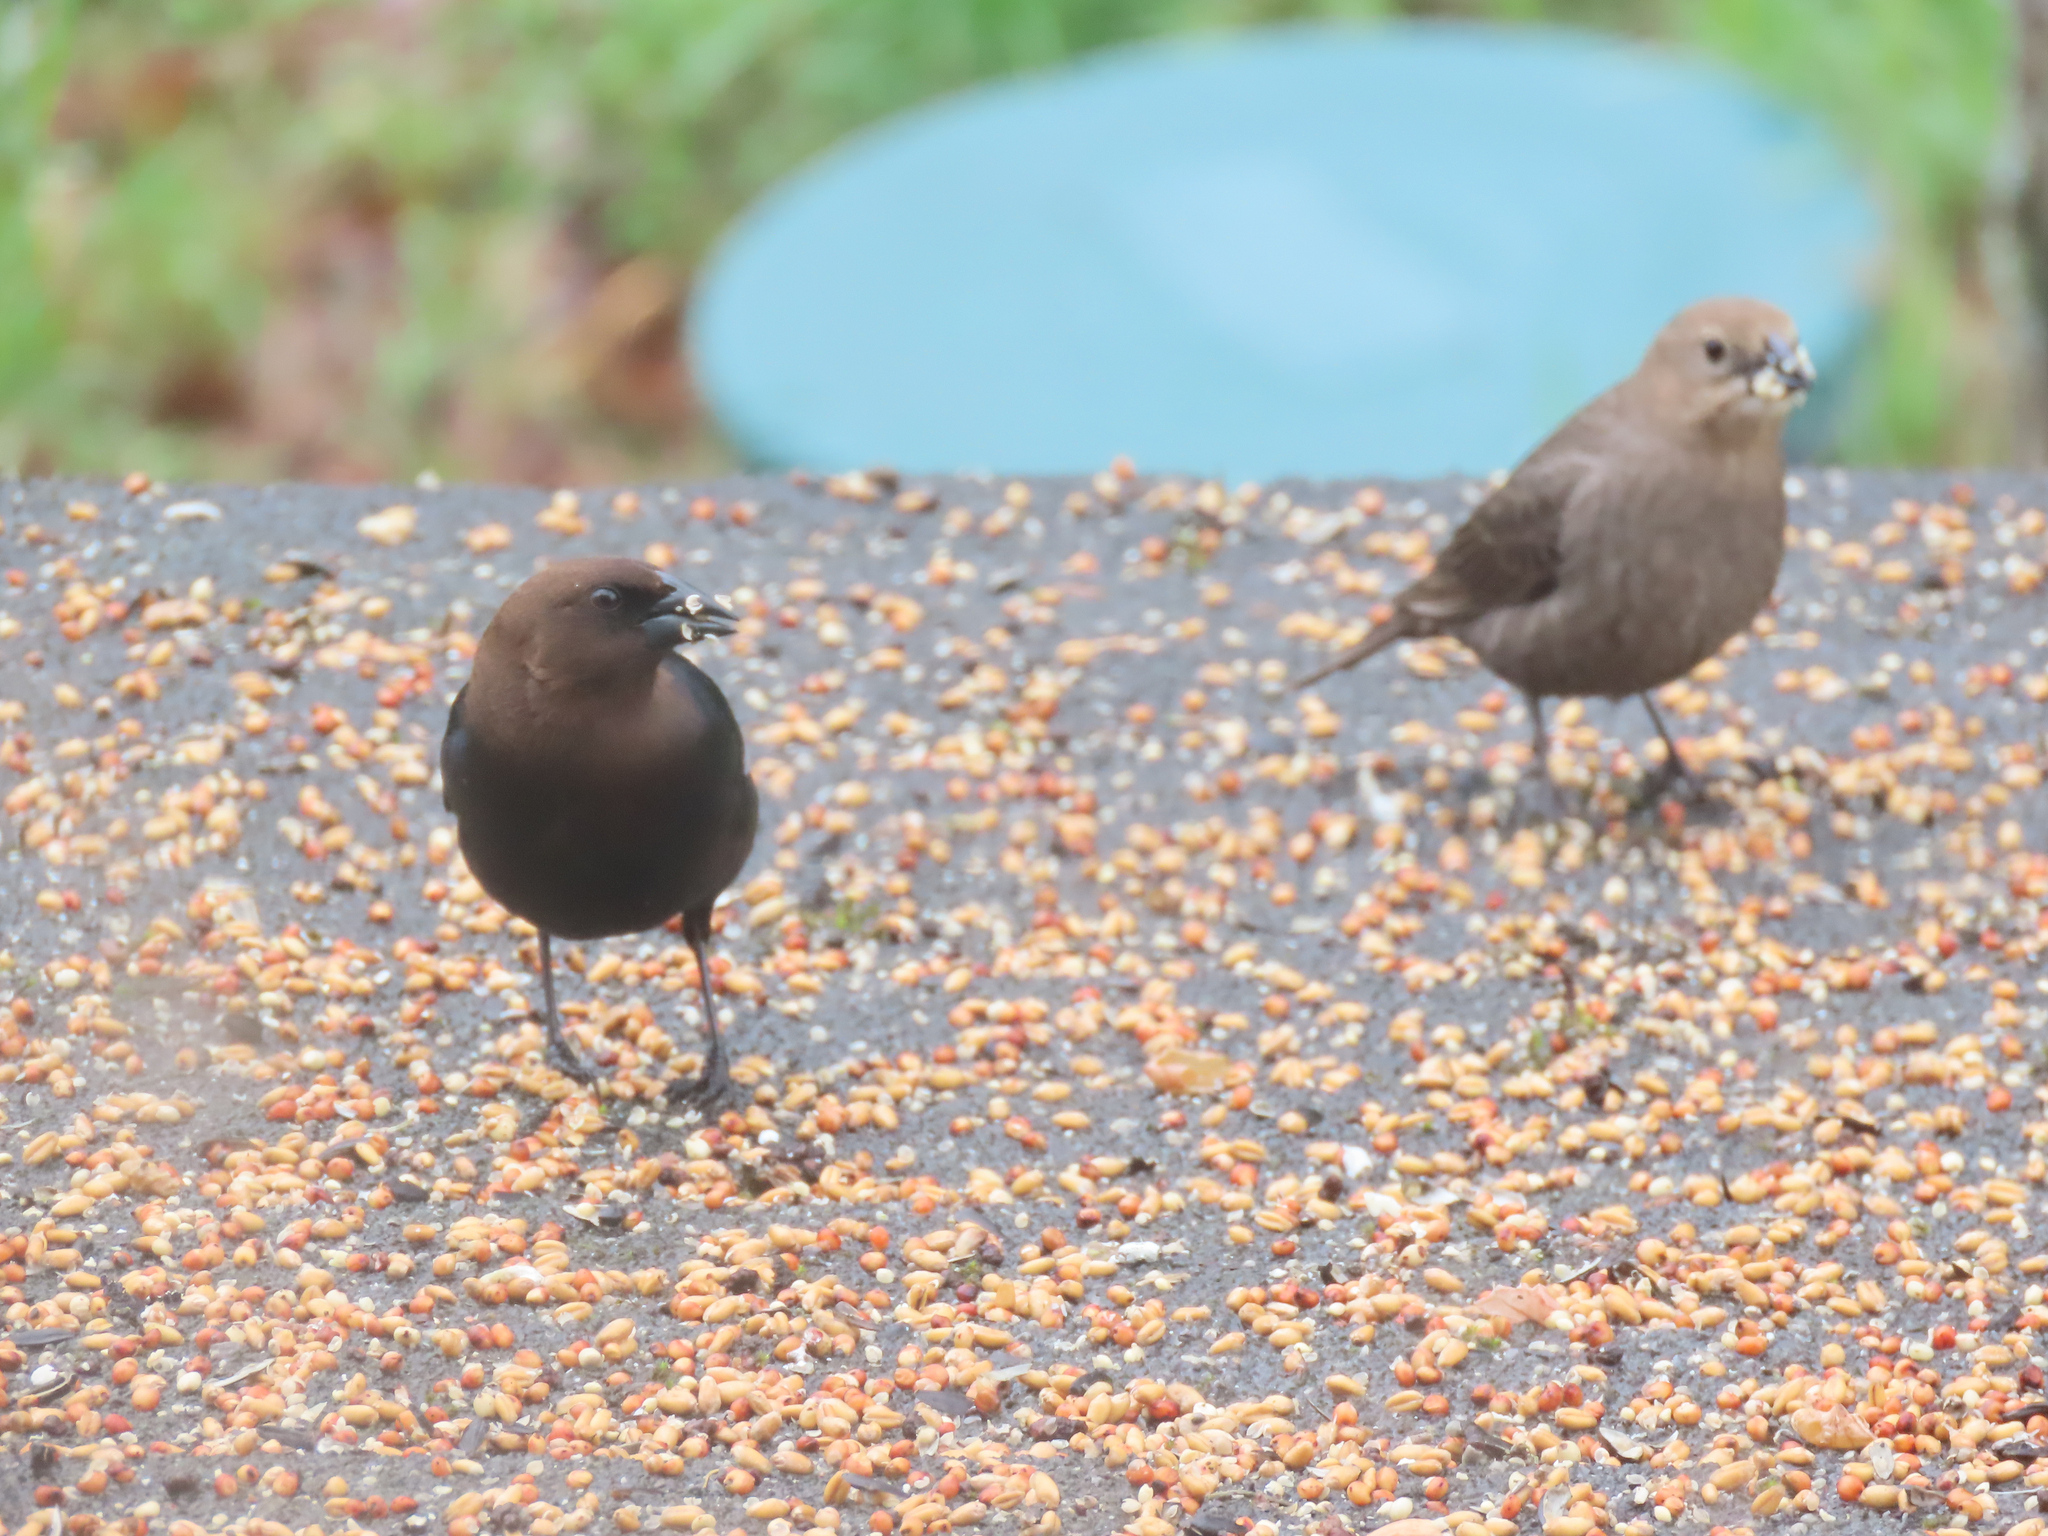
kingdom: Animalia
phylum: Chordata
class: Aves
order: Passeriformes
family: Icteridae
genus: Molothrus
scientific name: Molothrus ater
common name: Brown-headed cowbird
